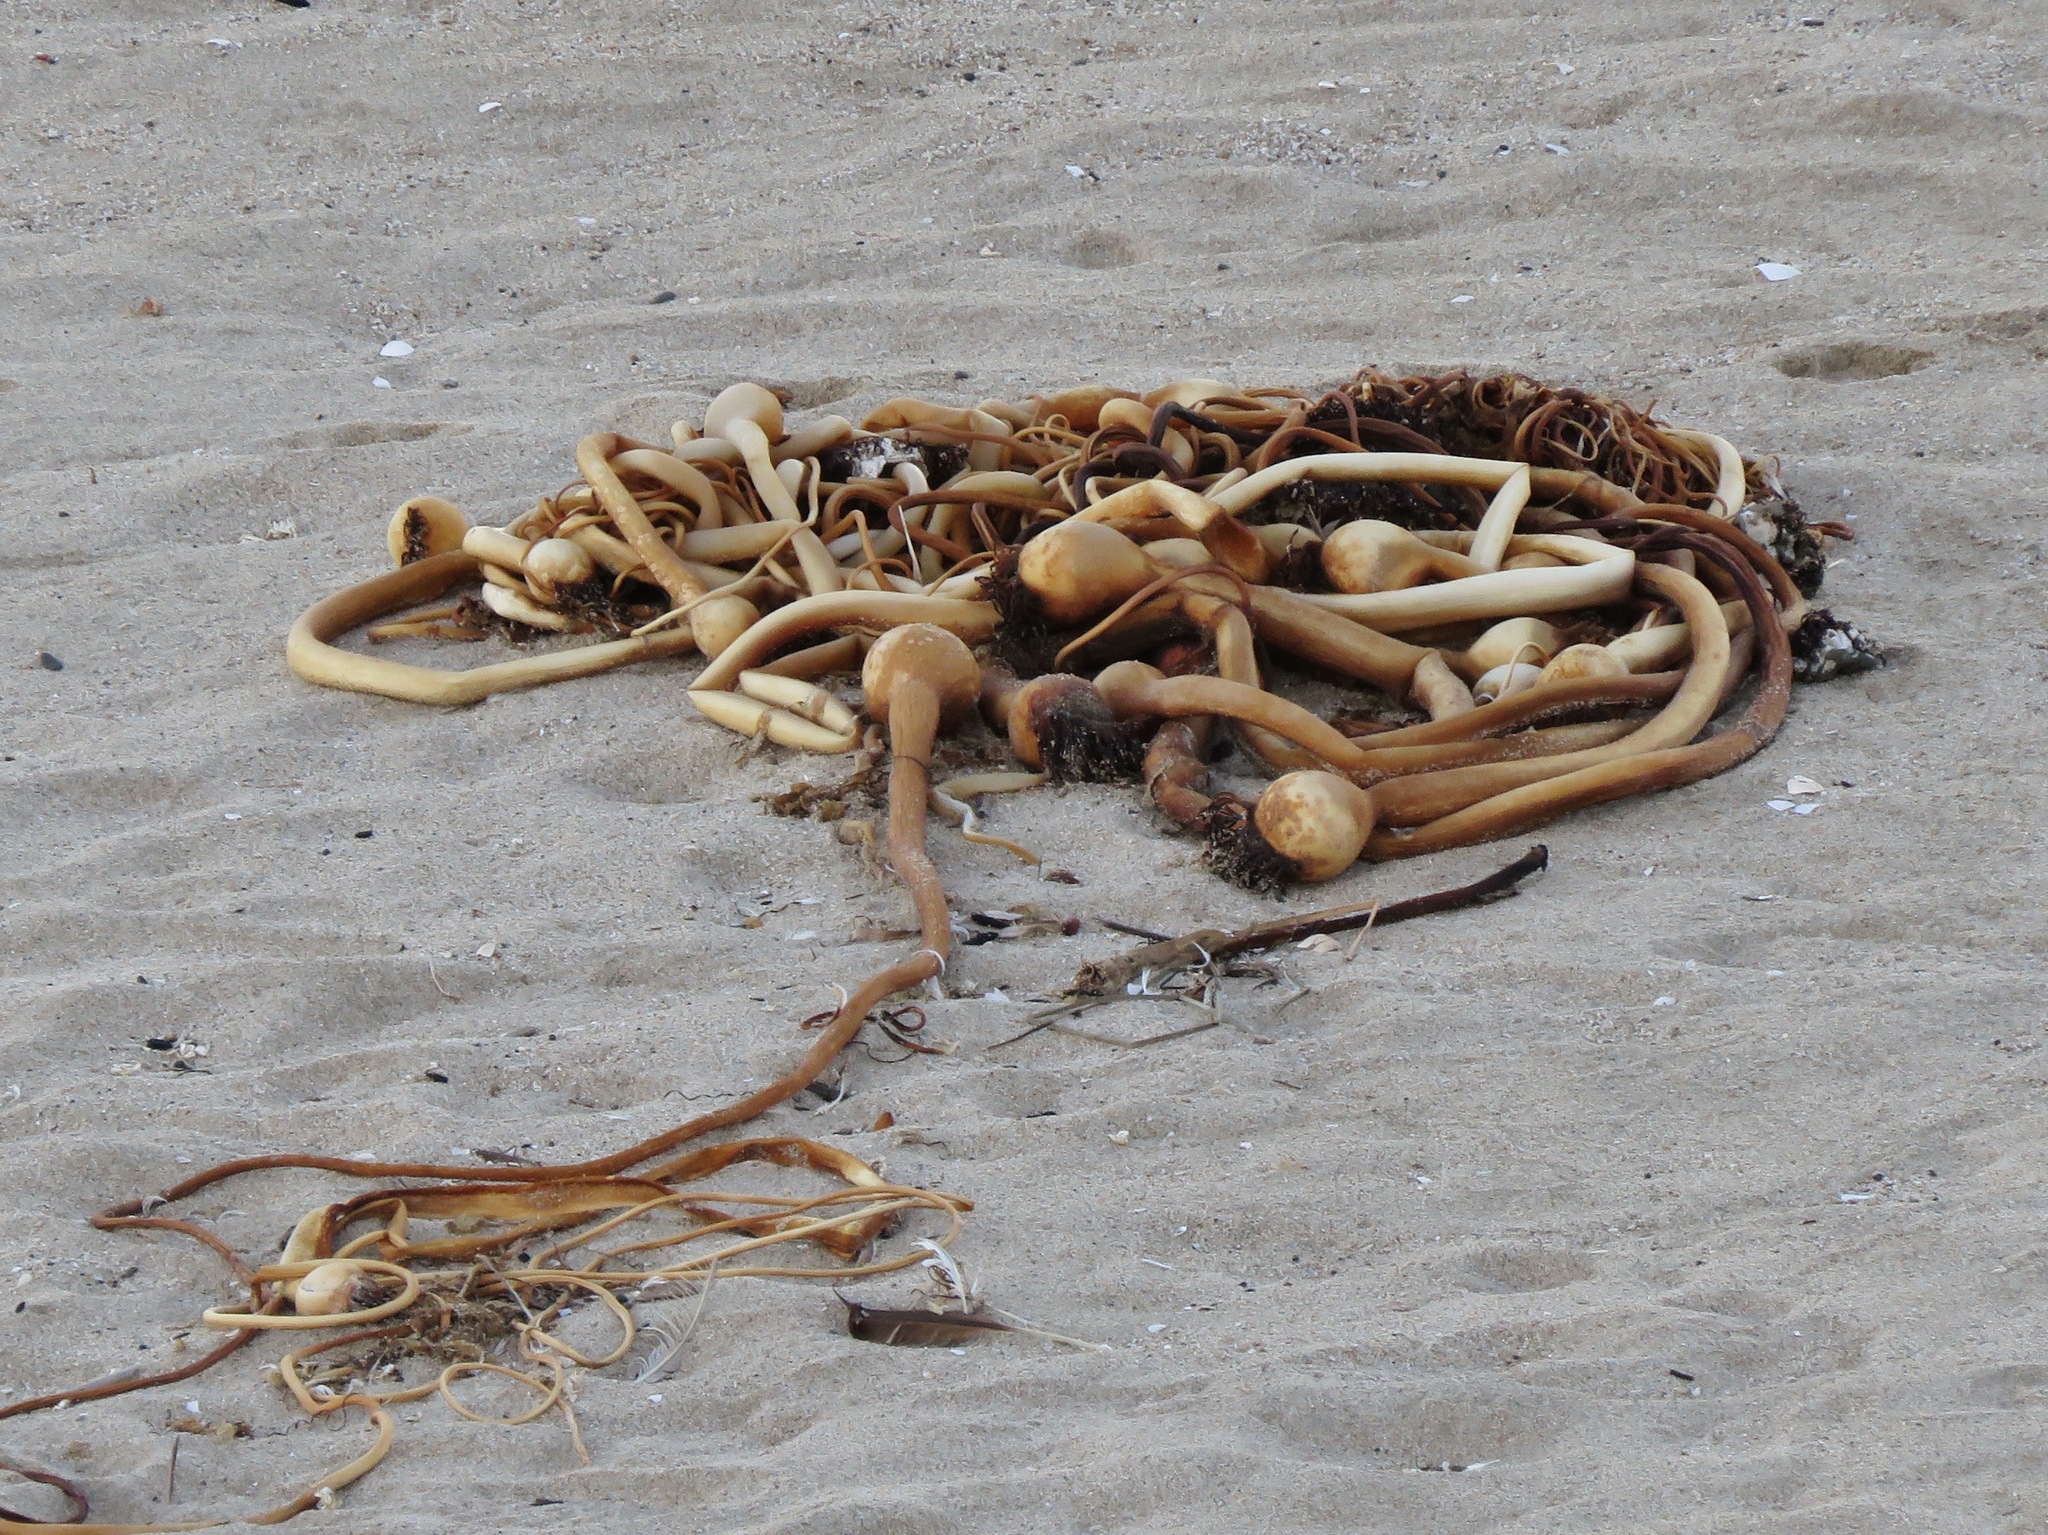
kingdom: Chromista
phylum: Ochrophyta
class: Phaeophyceae
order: Laminariales
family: Laminariaceae
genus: Nereocystis
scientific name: Nereocystis luetkeana
